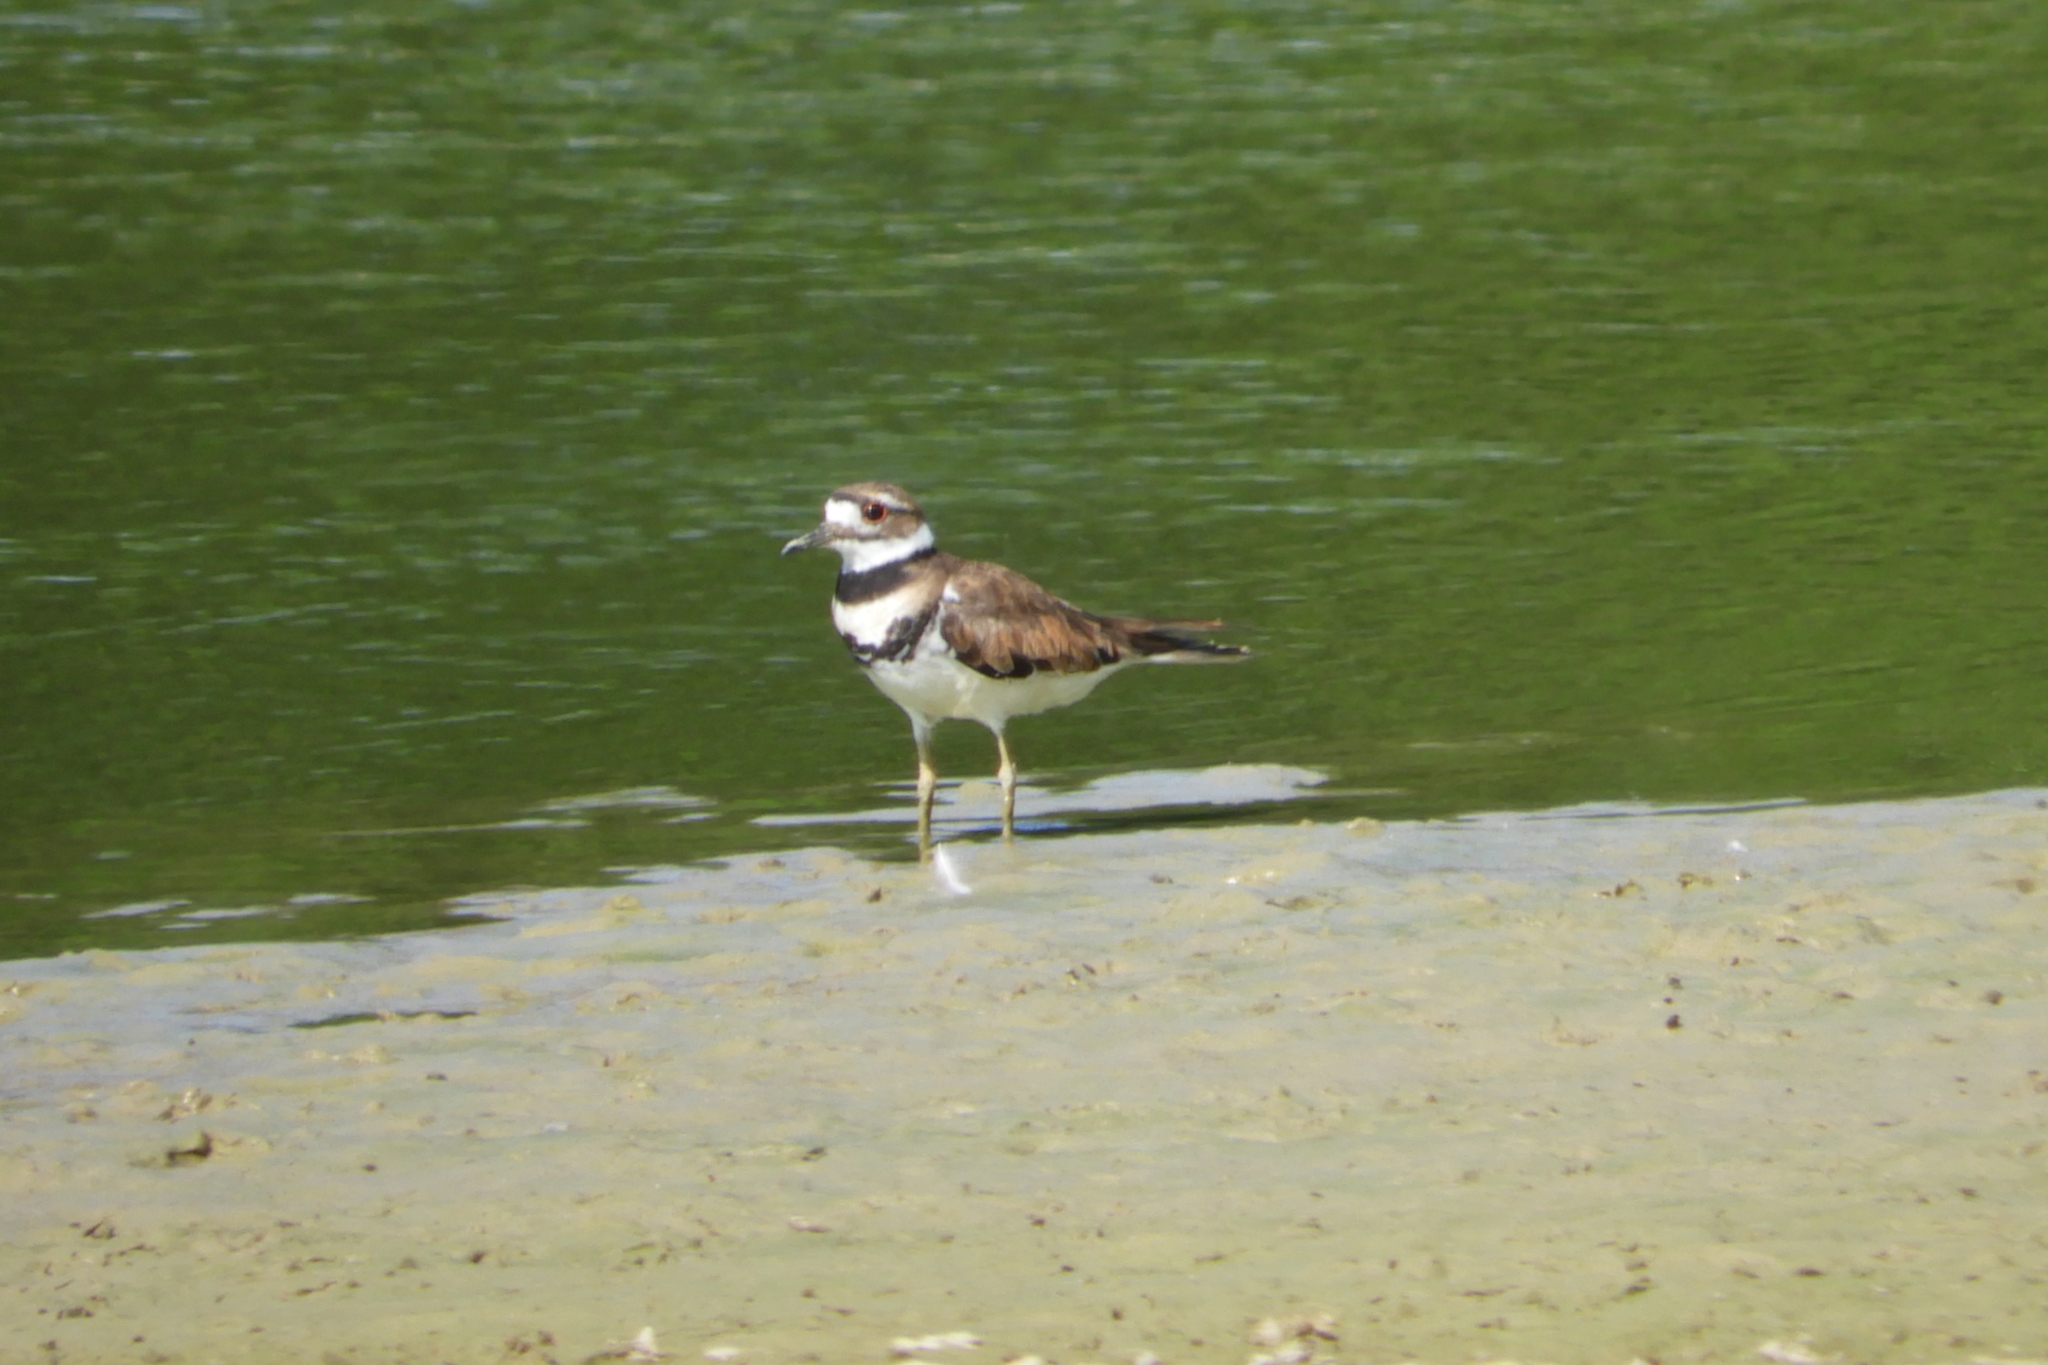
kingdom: Animalia
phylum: Chordata
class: Aves
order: Charadriiformes
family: Charadriidae
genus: Charadrius
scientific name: Charadrius vociferus
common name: Killdeer
